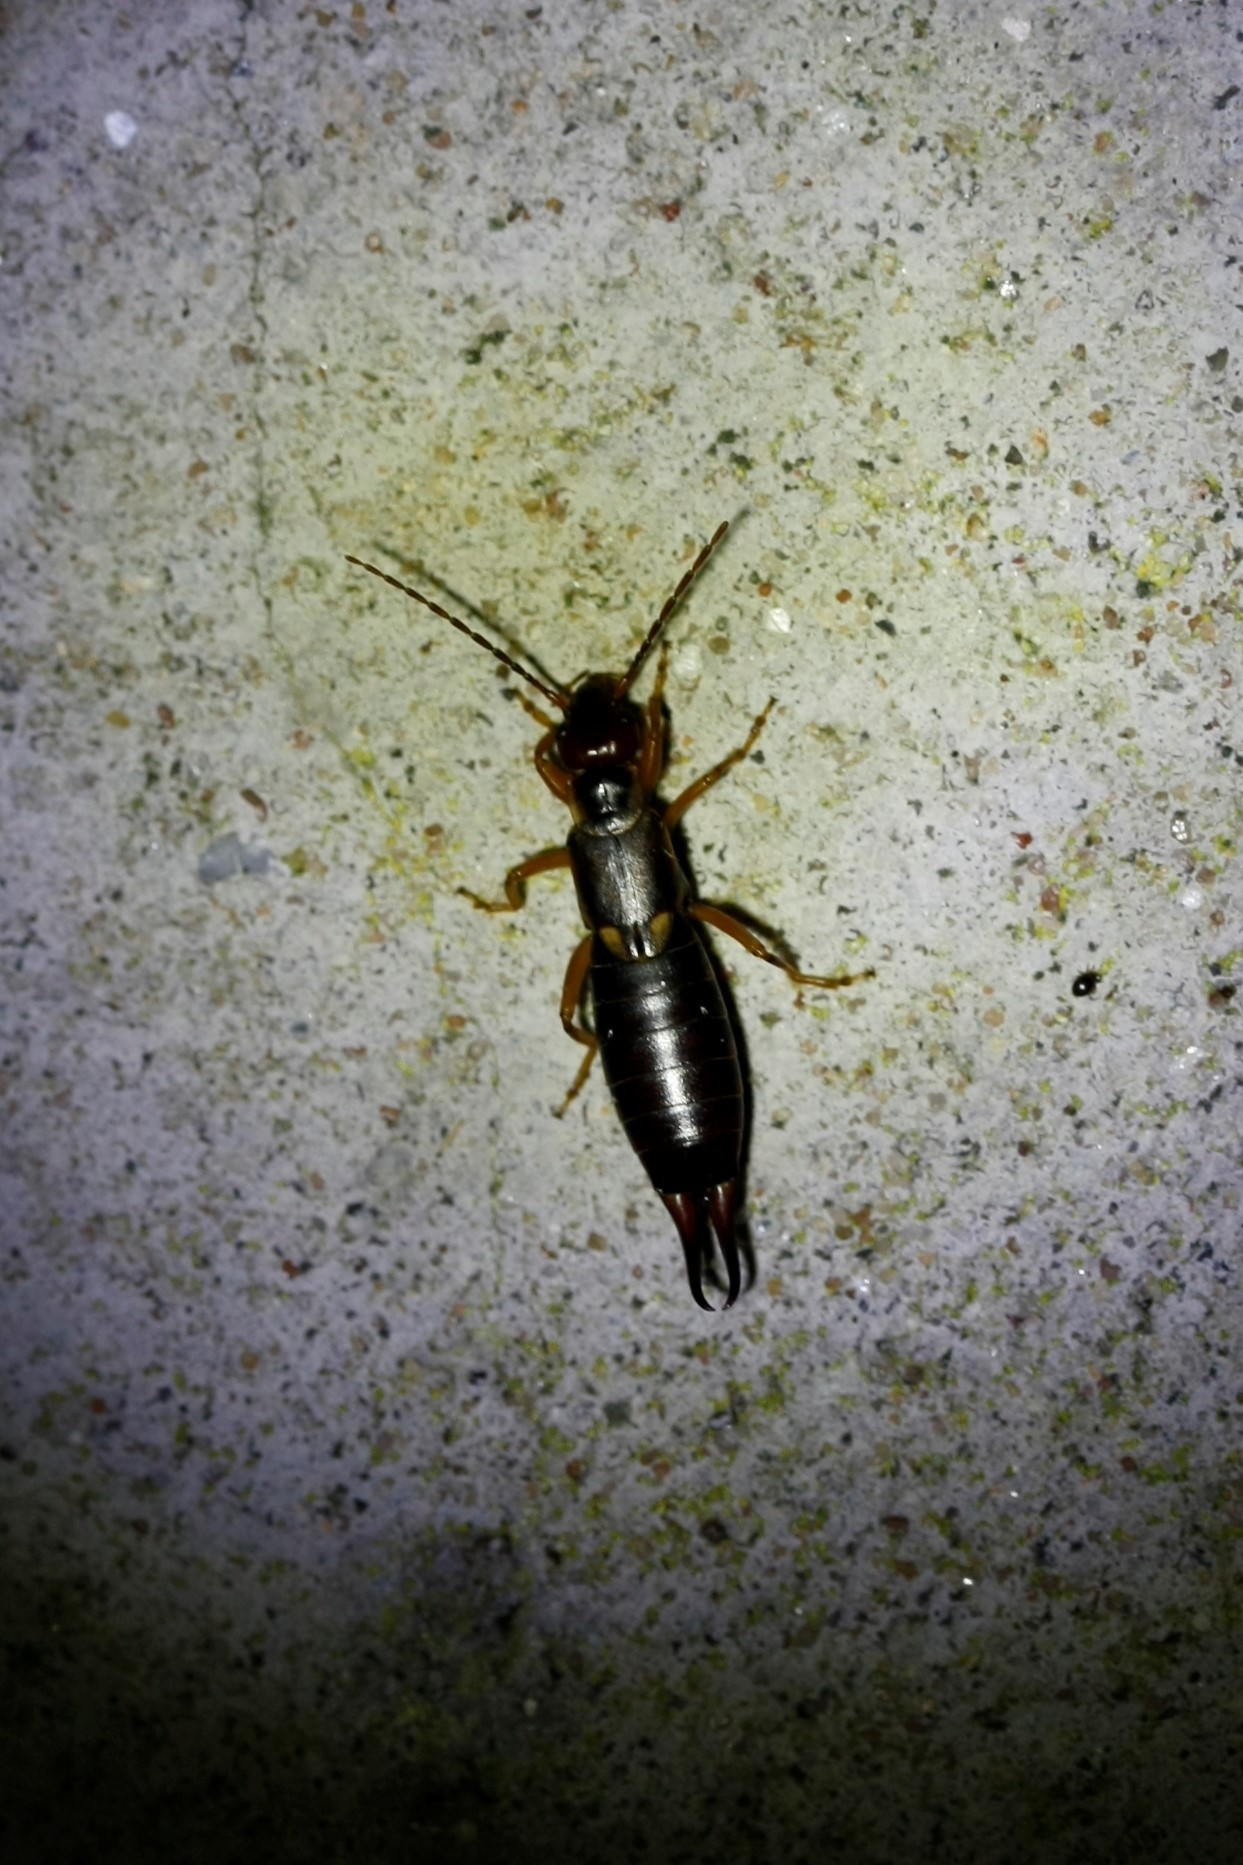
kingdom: Animalia
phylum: Arthropoda
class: Insecta
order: Dermaptera
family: Forficulidae
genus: Forficula
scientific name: Forficula
